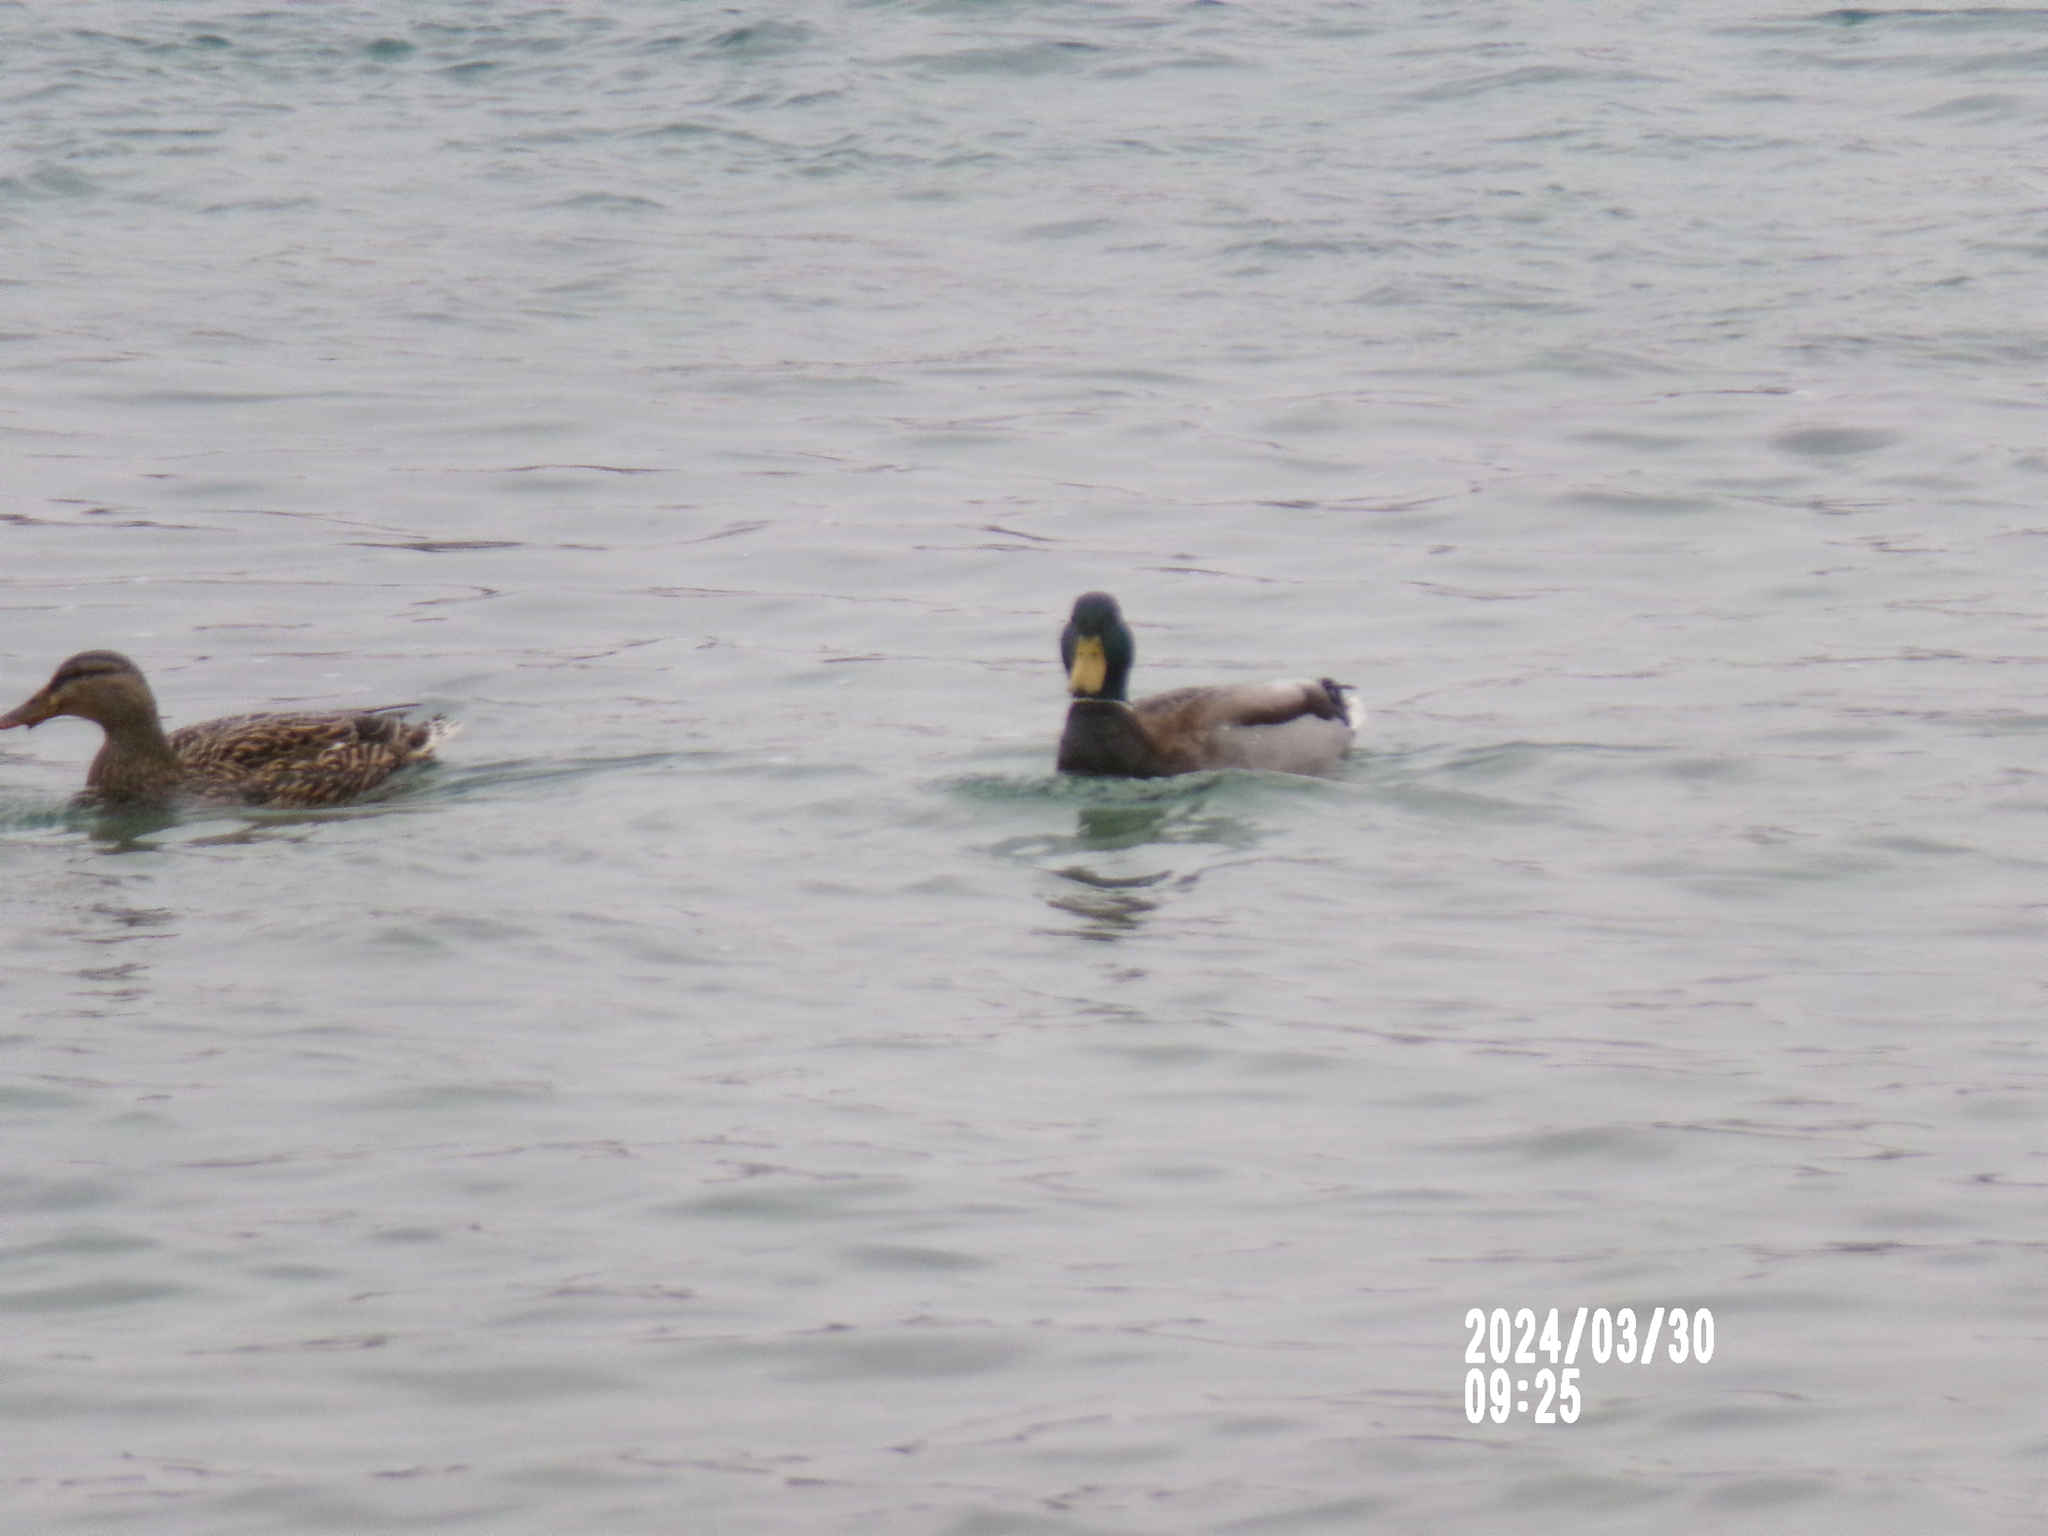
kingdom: Animalia
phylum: Chordata
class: Aves
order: Anseriformes
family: Anatidae
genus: Anas
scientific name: Anas platyrhynchos
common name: Mallard
